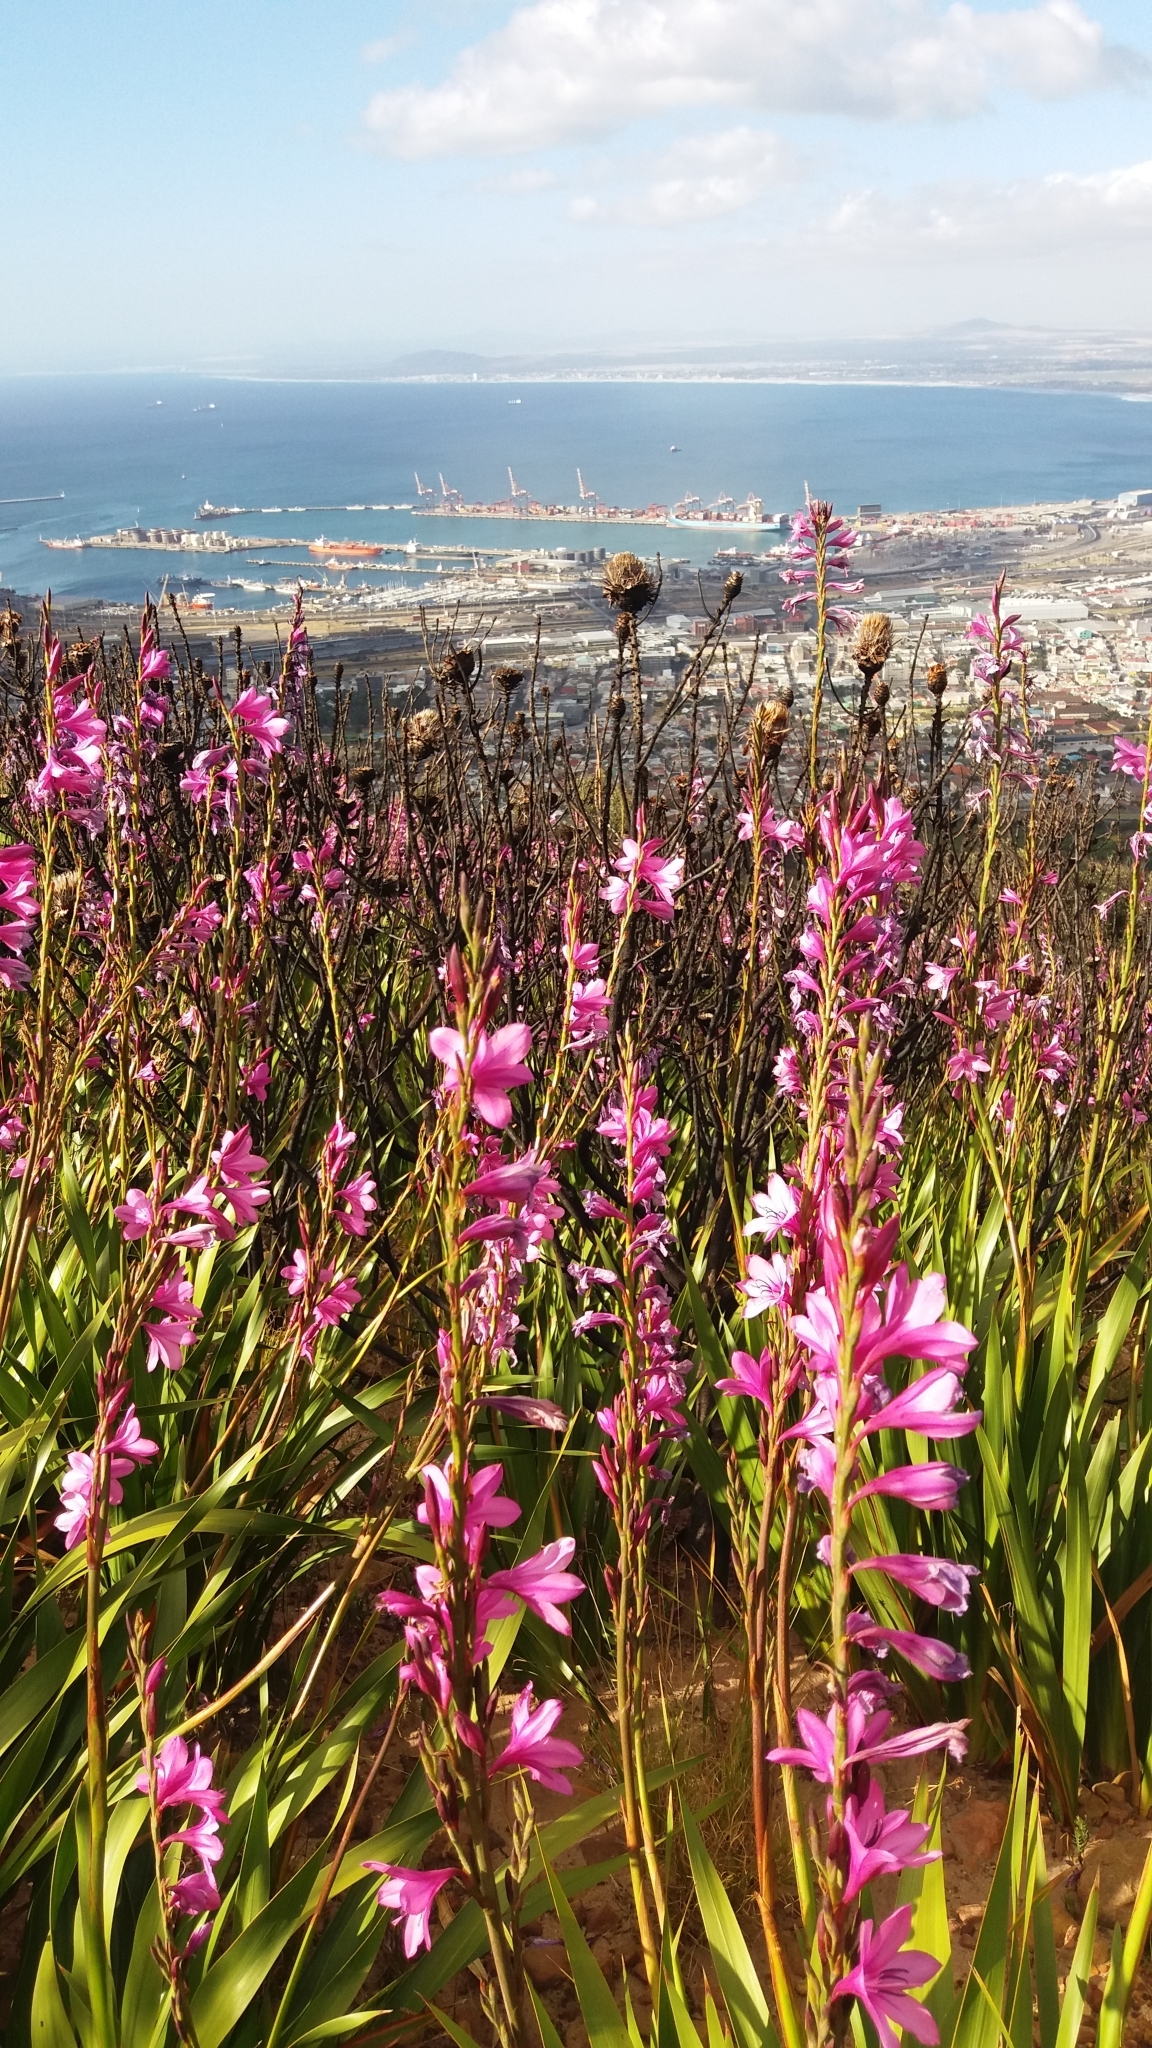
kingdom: Plantae
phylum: Tracheophyta
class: Liliopsida
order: Asparagales
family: Iridaceae
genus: Watsonia
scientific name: Watsonia borbonica
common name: Bugle-lily
